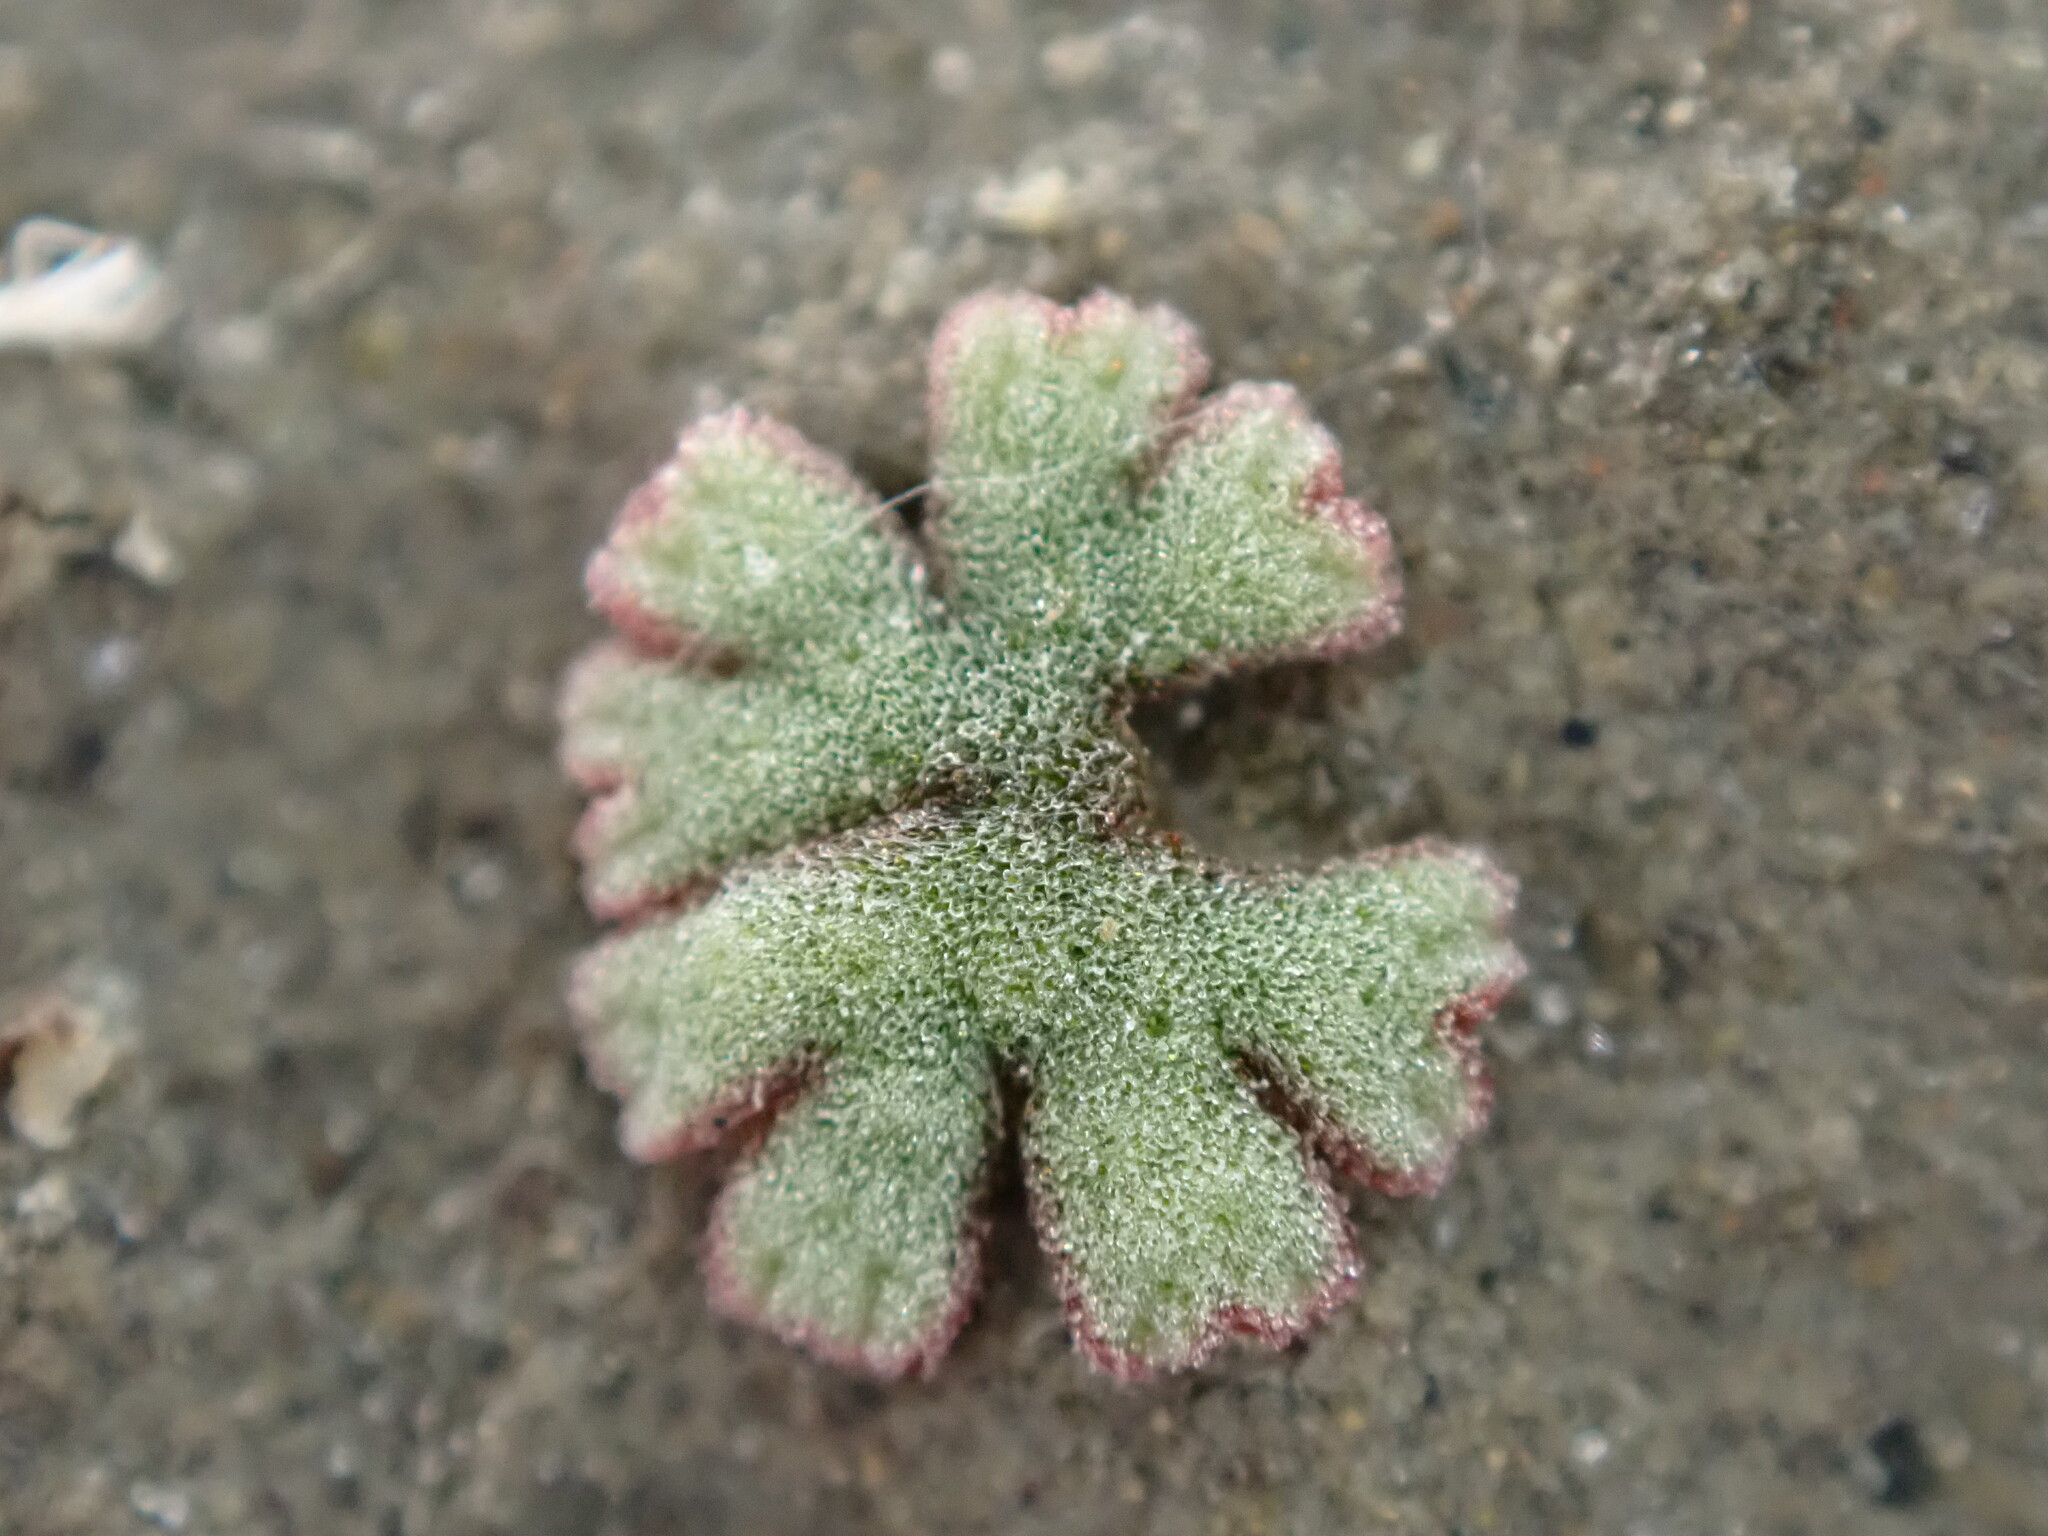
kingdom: Plantae
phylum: Marchantiophyta
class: Marchantiopsida
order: Marchantiales
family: Ricciaceae
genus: Riccia
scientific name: Riccia frostii
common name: Frost s crystalwort
